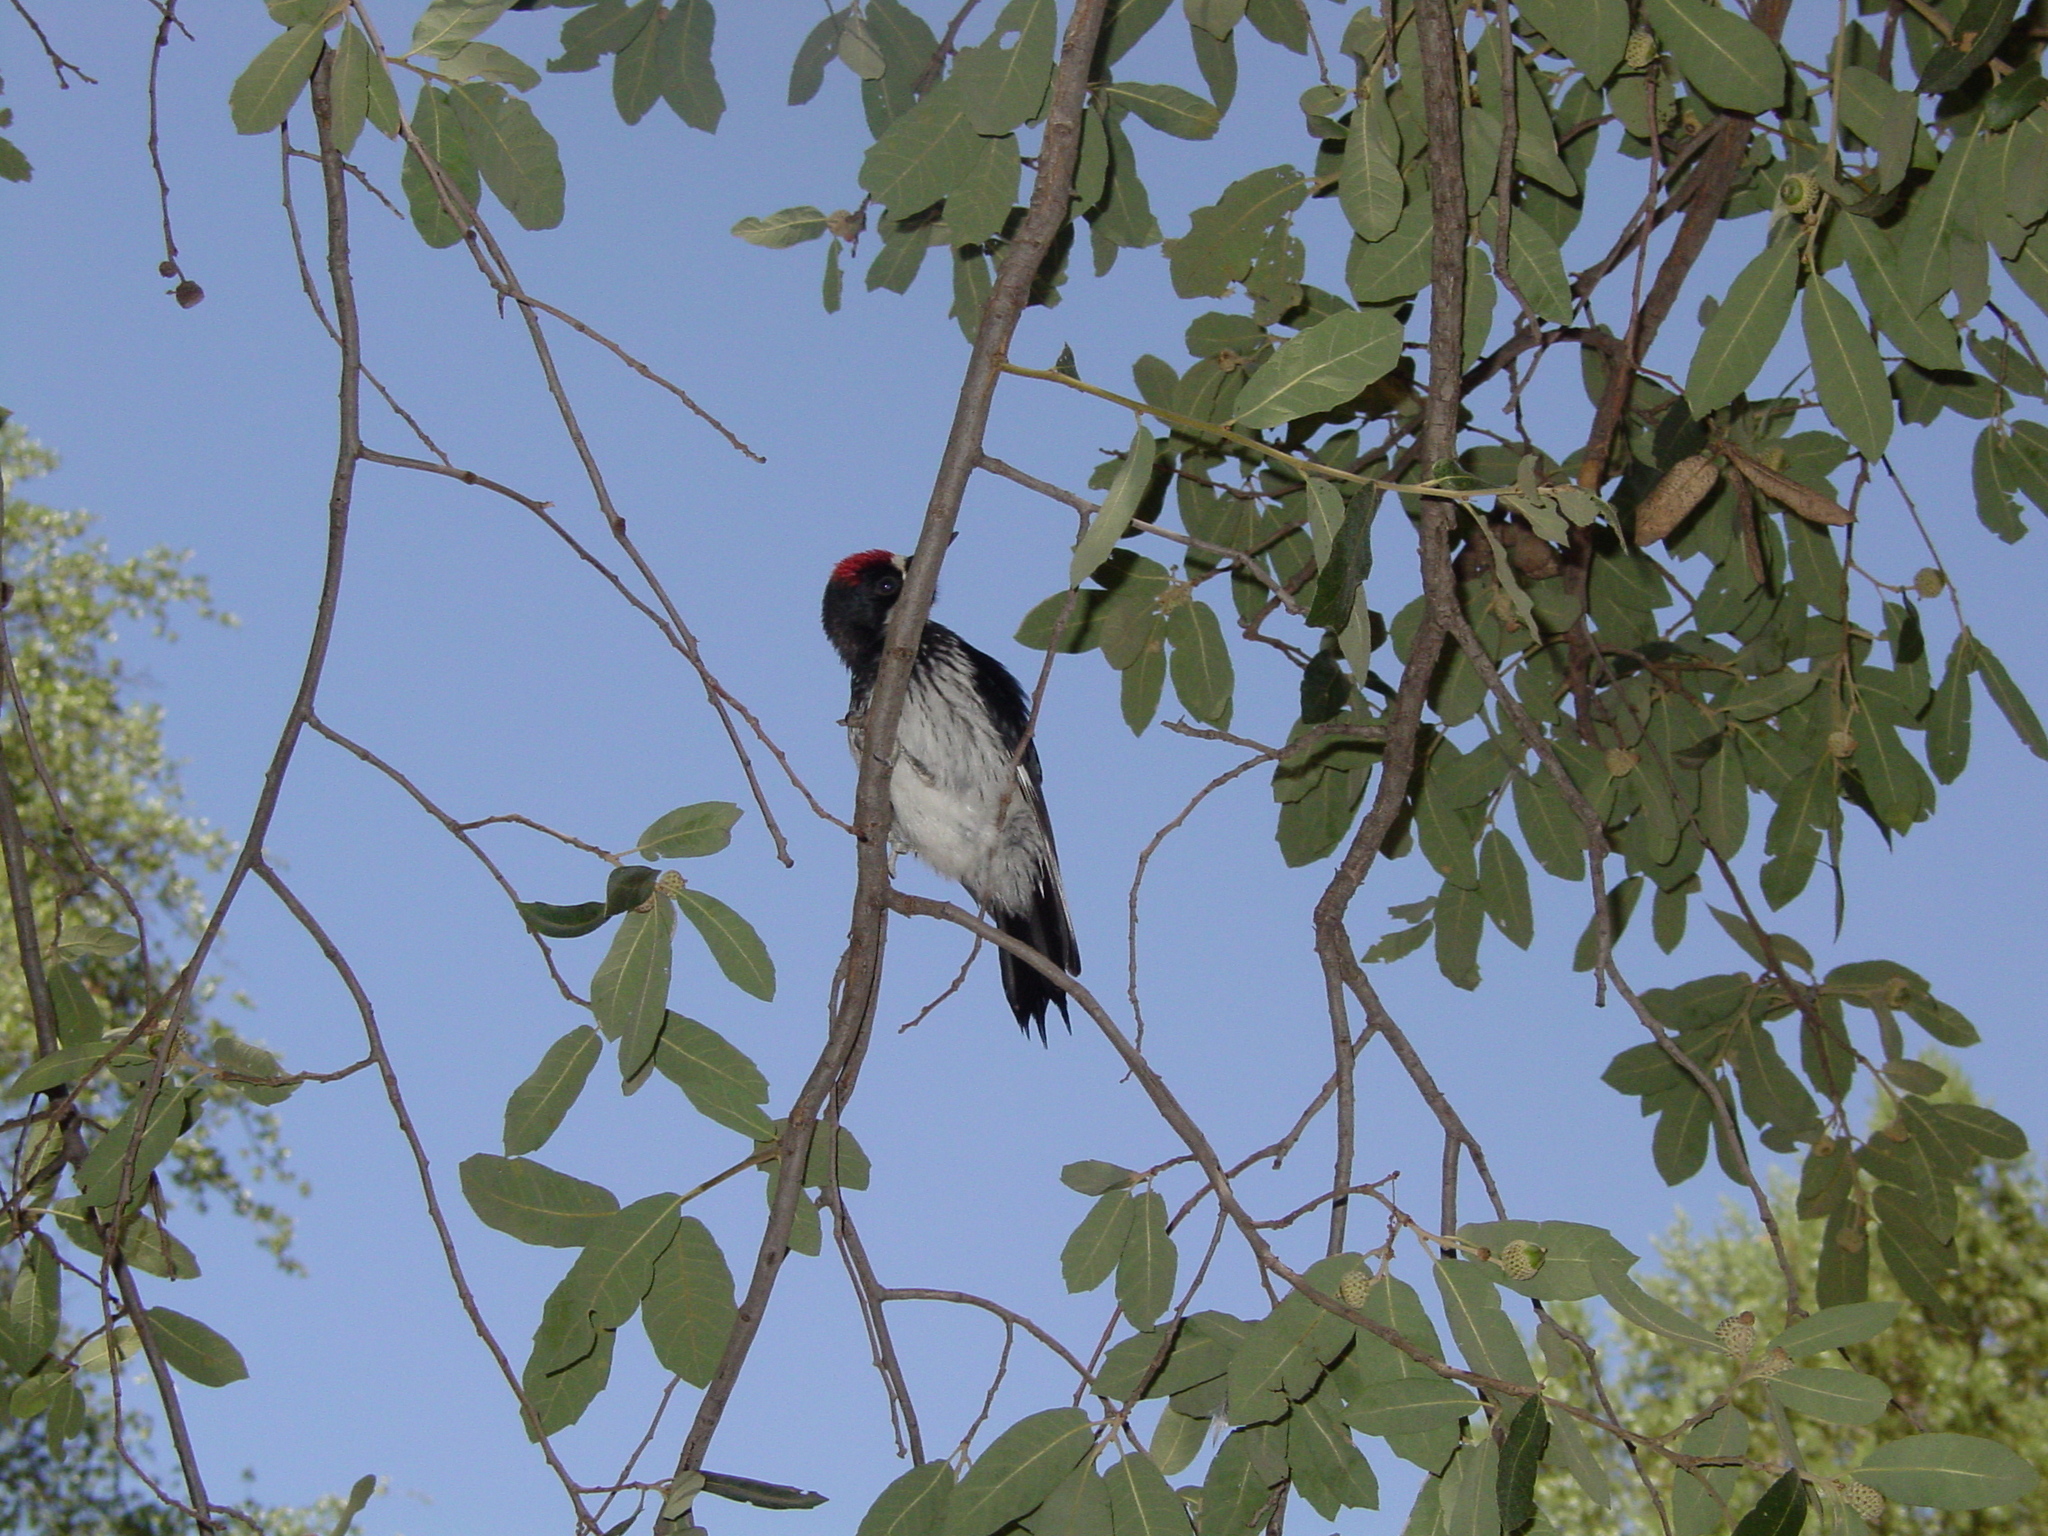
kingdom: Animalia
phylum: Chordata
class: Aves
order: Piciformes
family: Picidae
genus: Melanerpes
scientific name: Melanerpes formicivorus
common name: Acorn woodpecker
